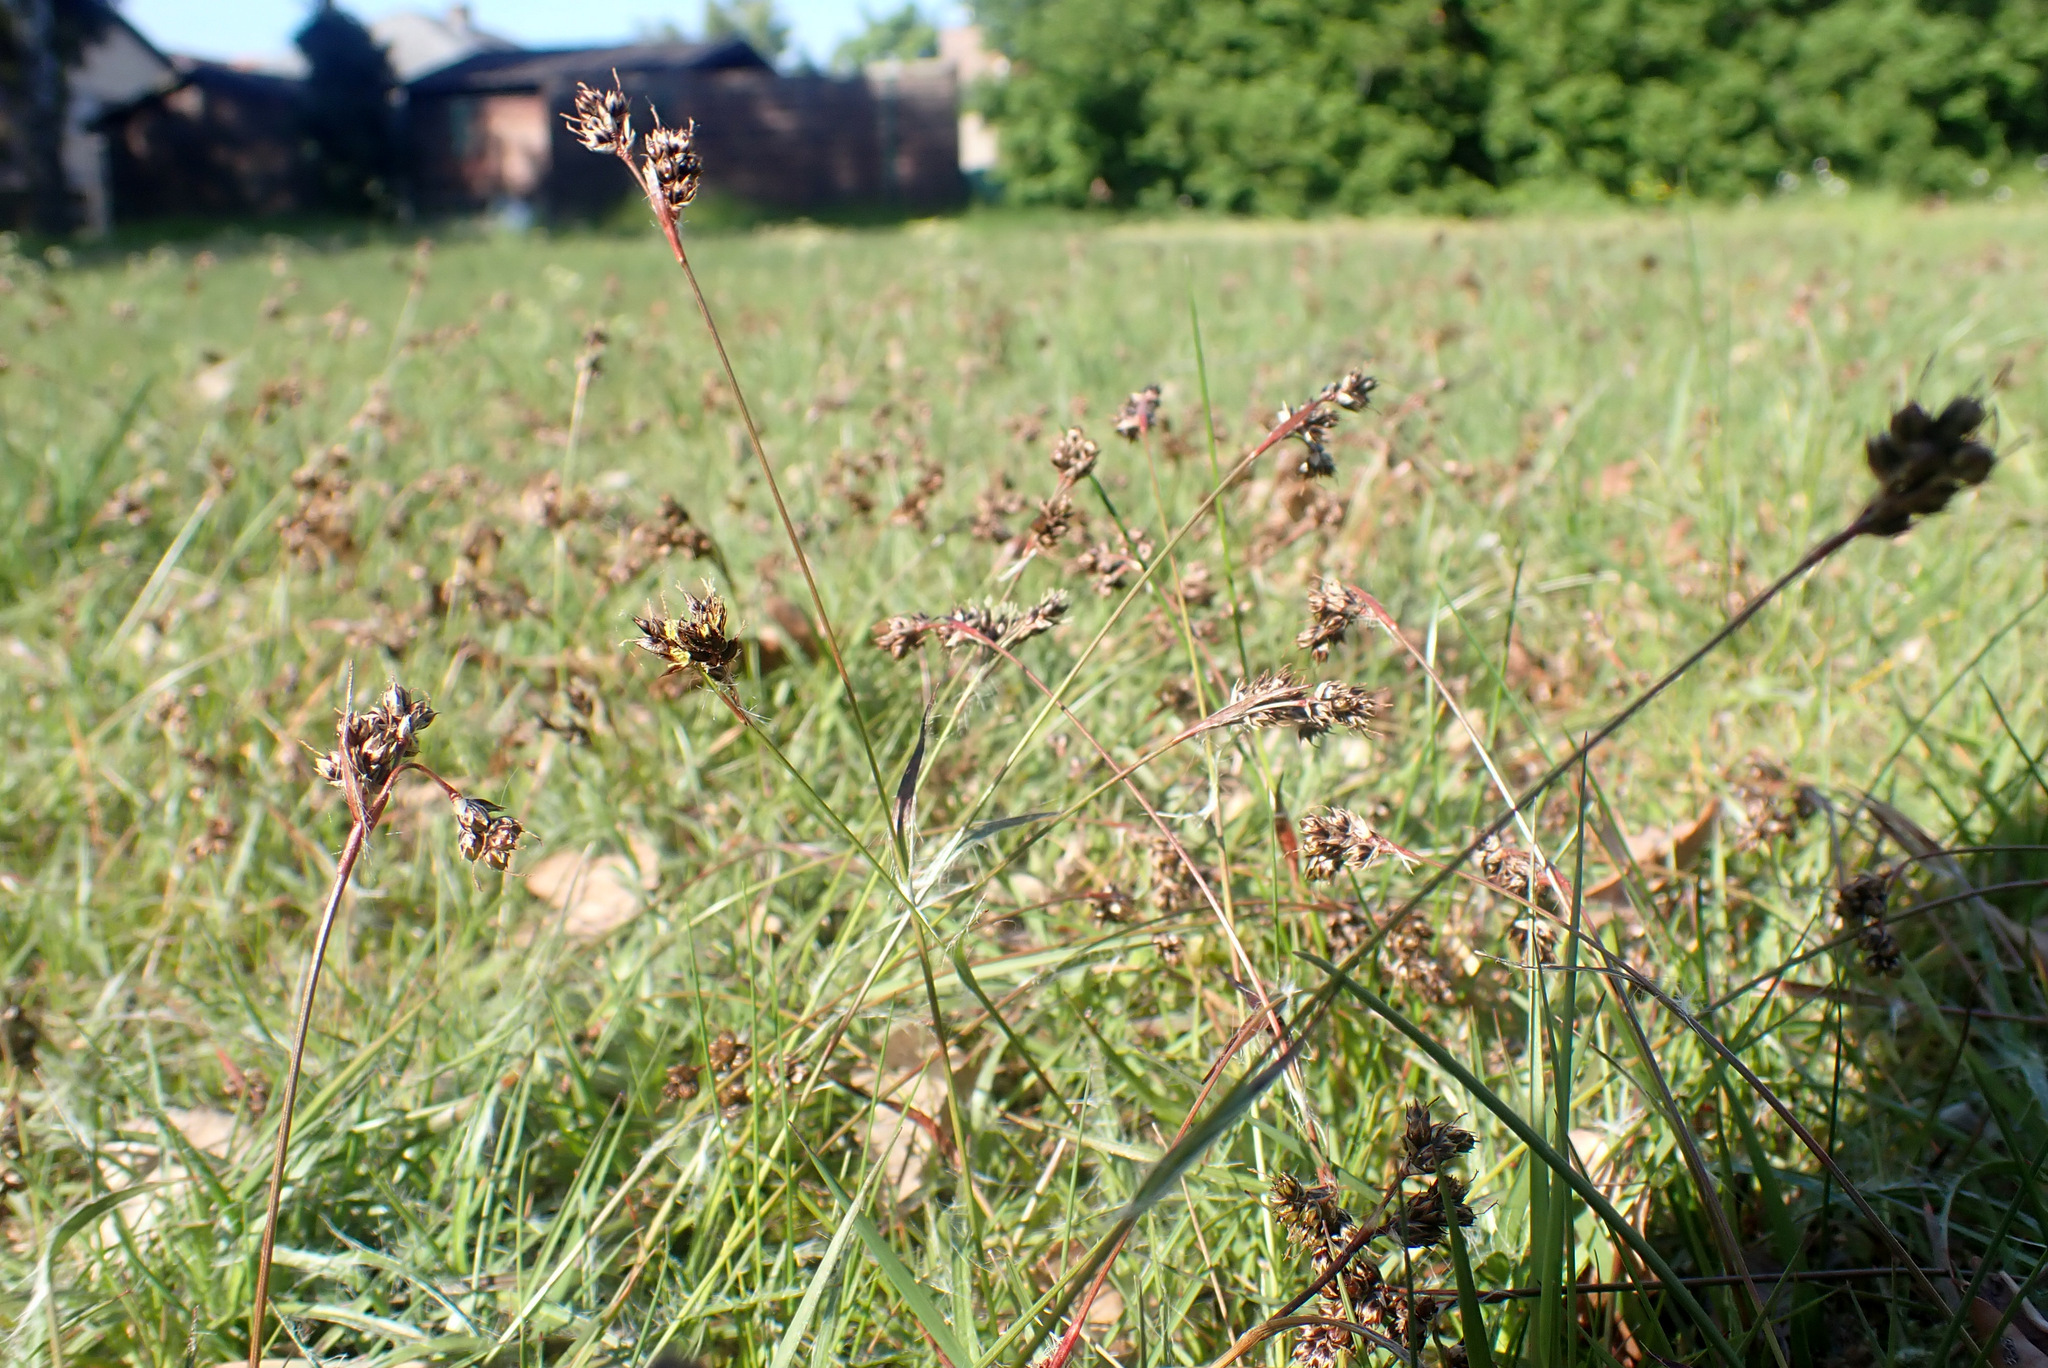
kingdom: Plantae
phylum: Tracheophyta
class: Liliopsida
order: Poales
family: Juncaceae
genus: Luzula
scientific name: Luzula campestris
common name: Field wood-rush
